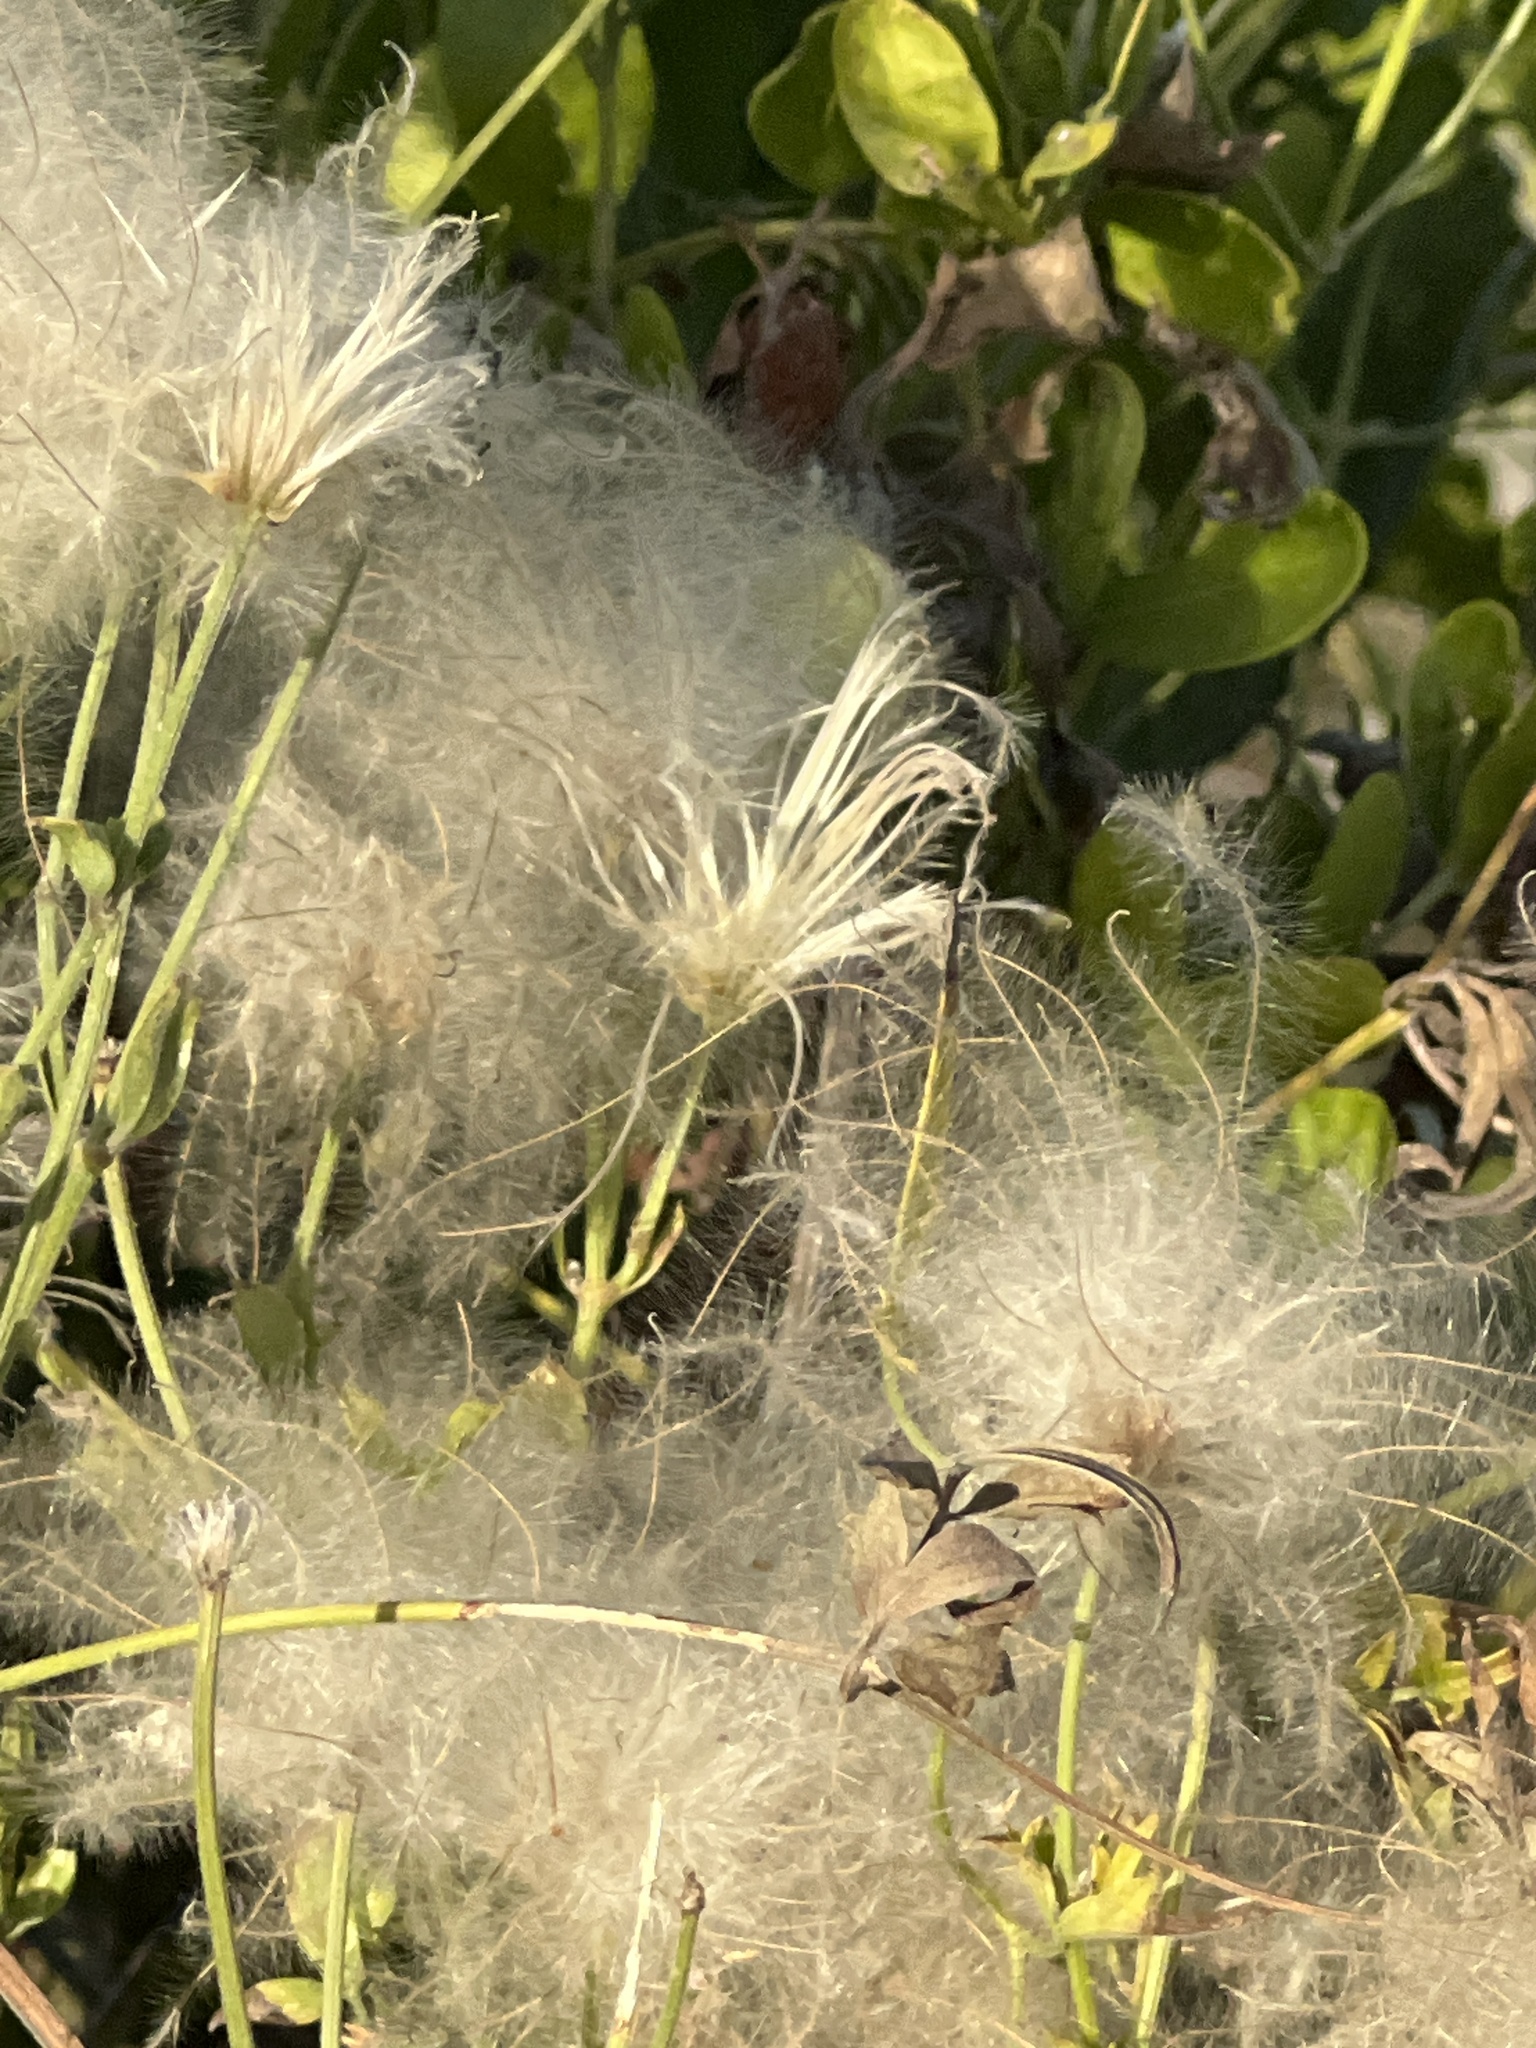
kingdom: Plantae
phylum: Tracheophyta
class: Magnoliopsida
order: Ranunculales
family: Ranunculaceae
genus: Clematis
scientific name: Clematis drummondii
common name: Texas virgin's bower
